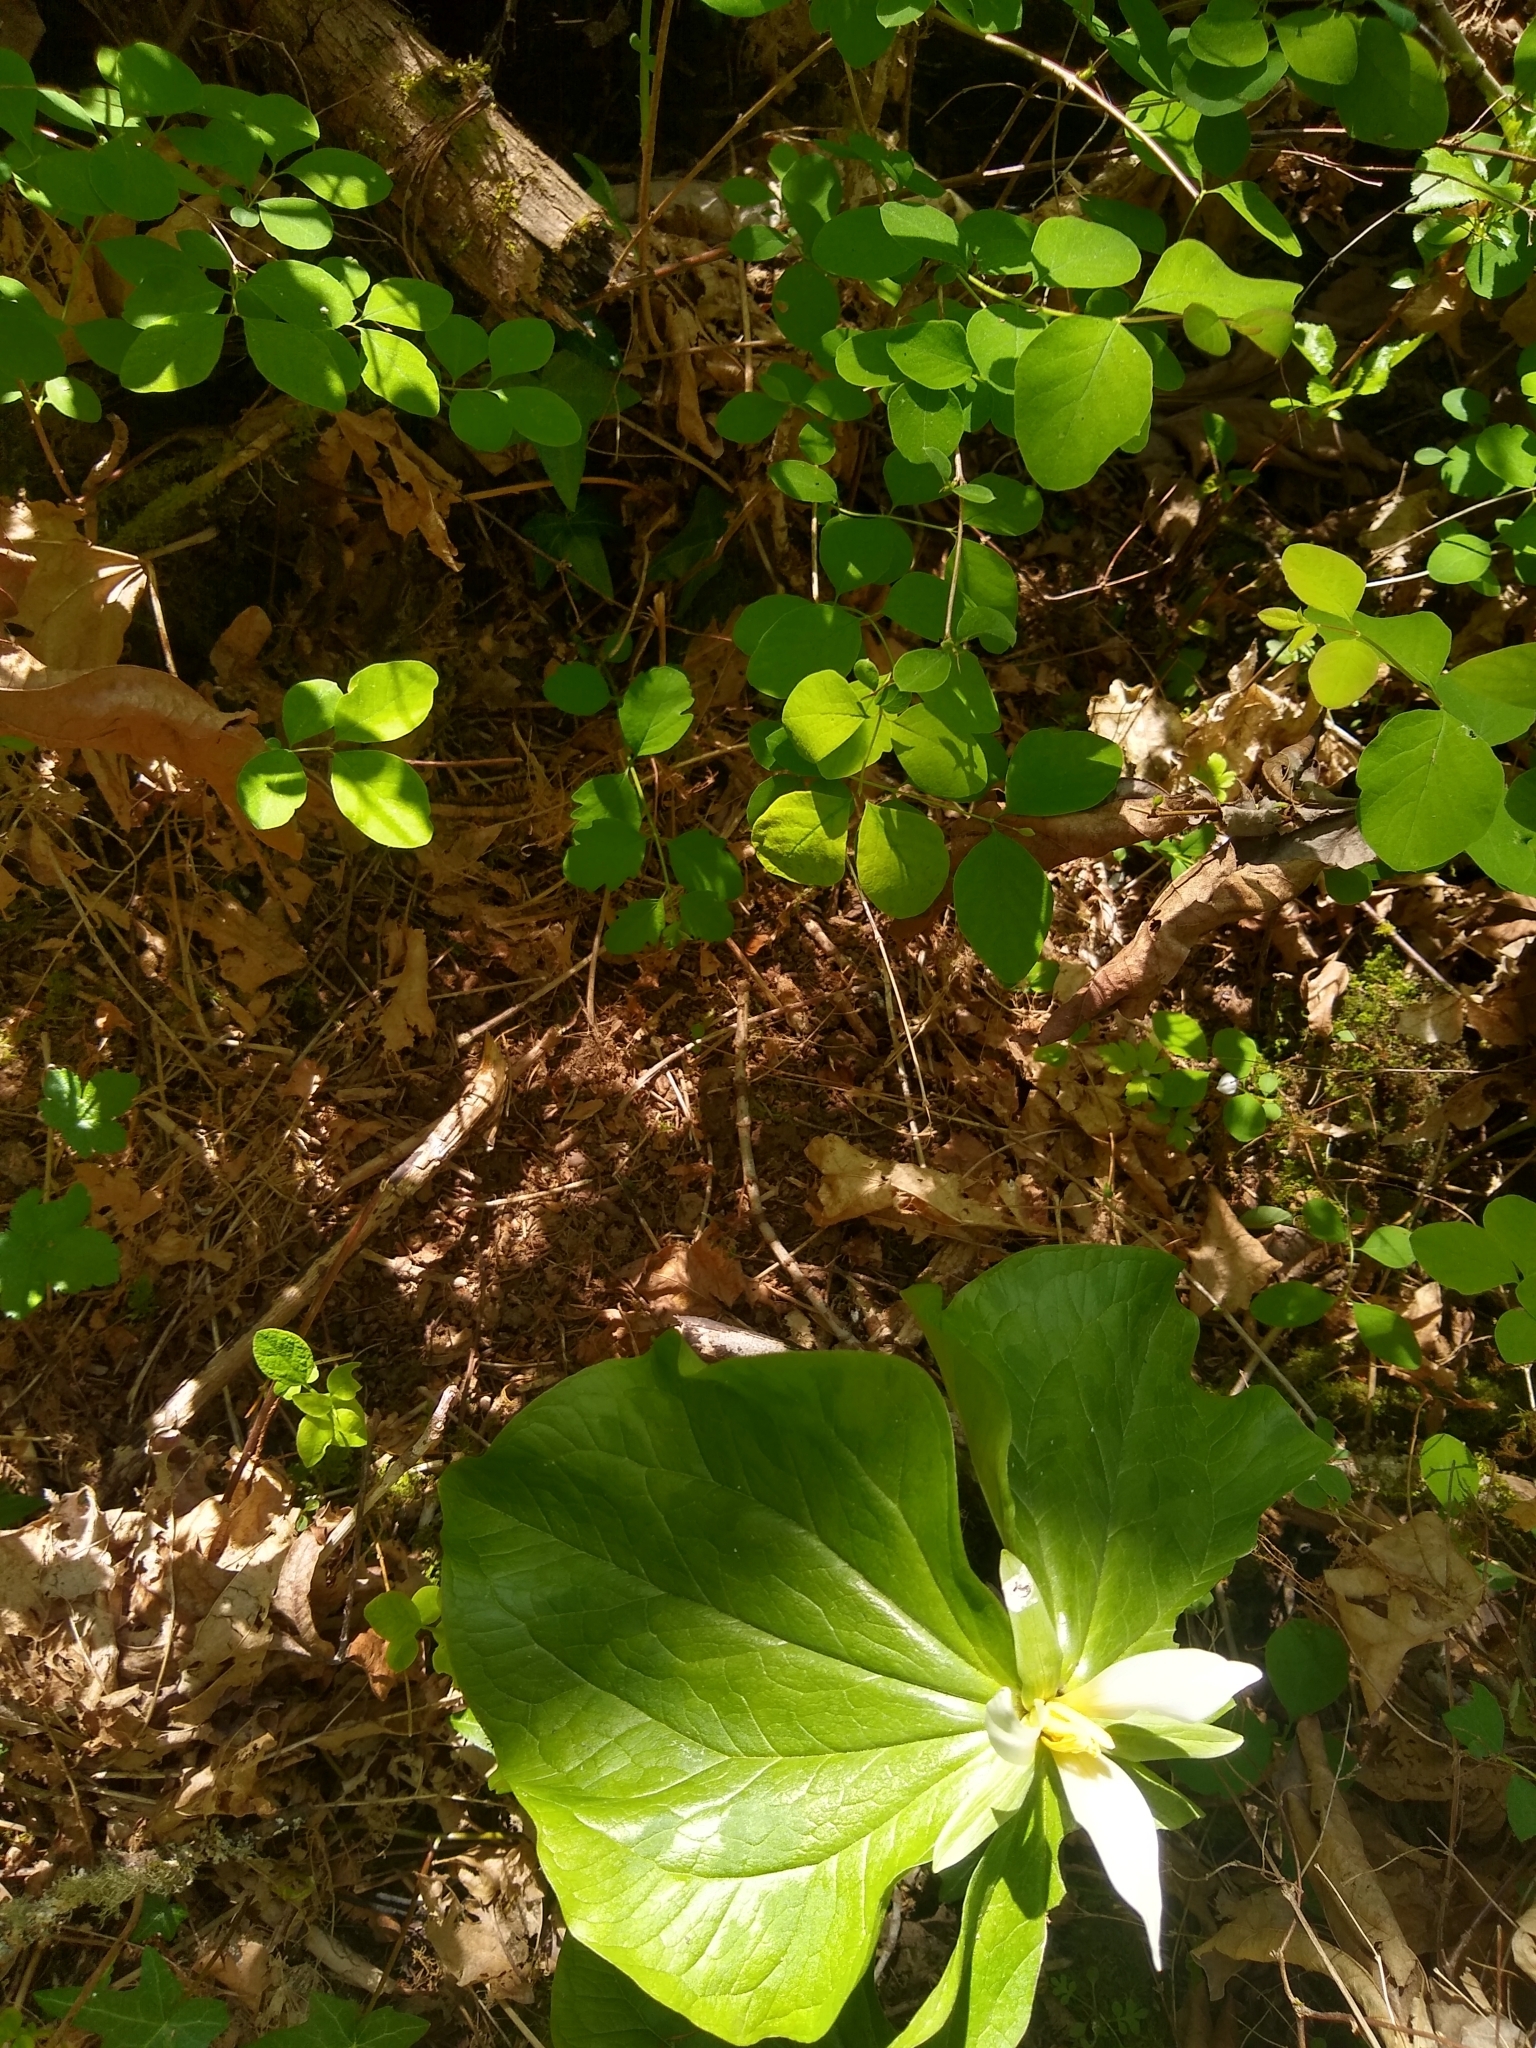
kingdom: Plantae
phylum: Tracheophyta
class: Liliopsida
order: Liliales
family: Melanthiaceae
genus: Trillium
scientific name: Trillium albidum
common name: Freeman's trillium
